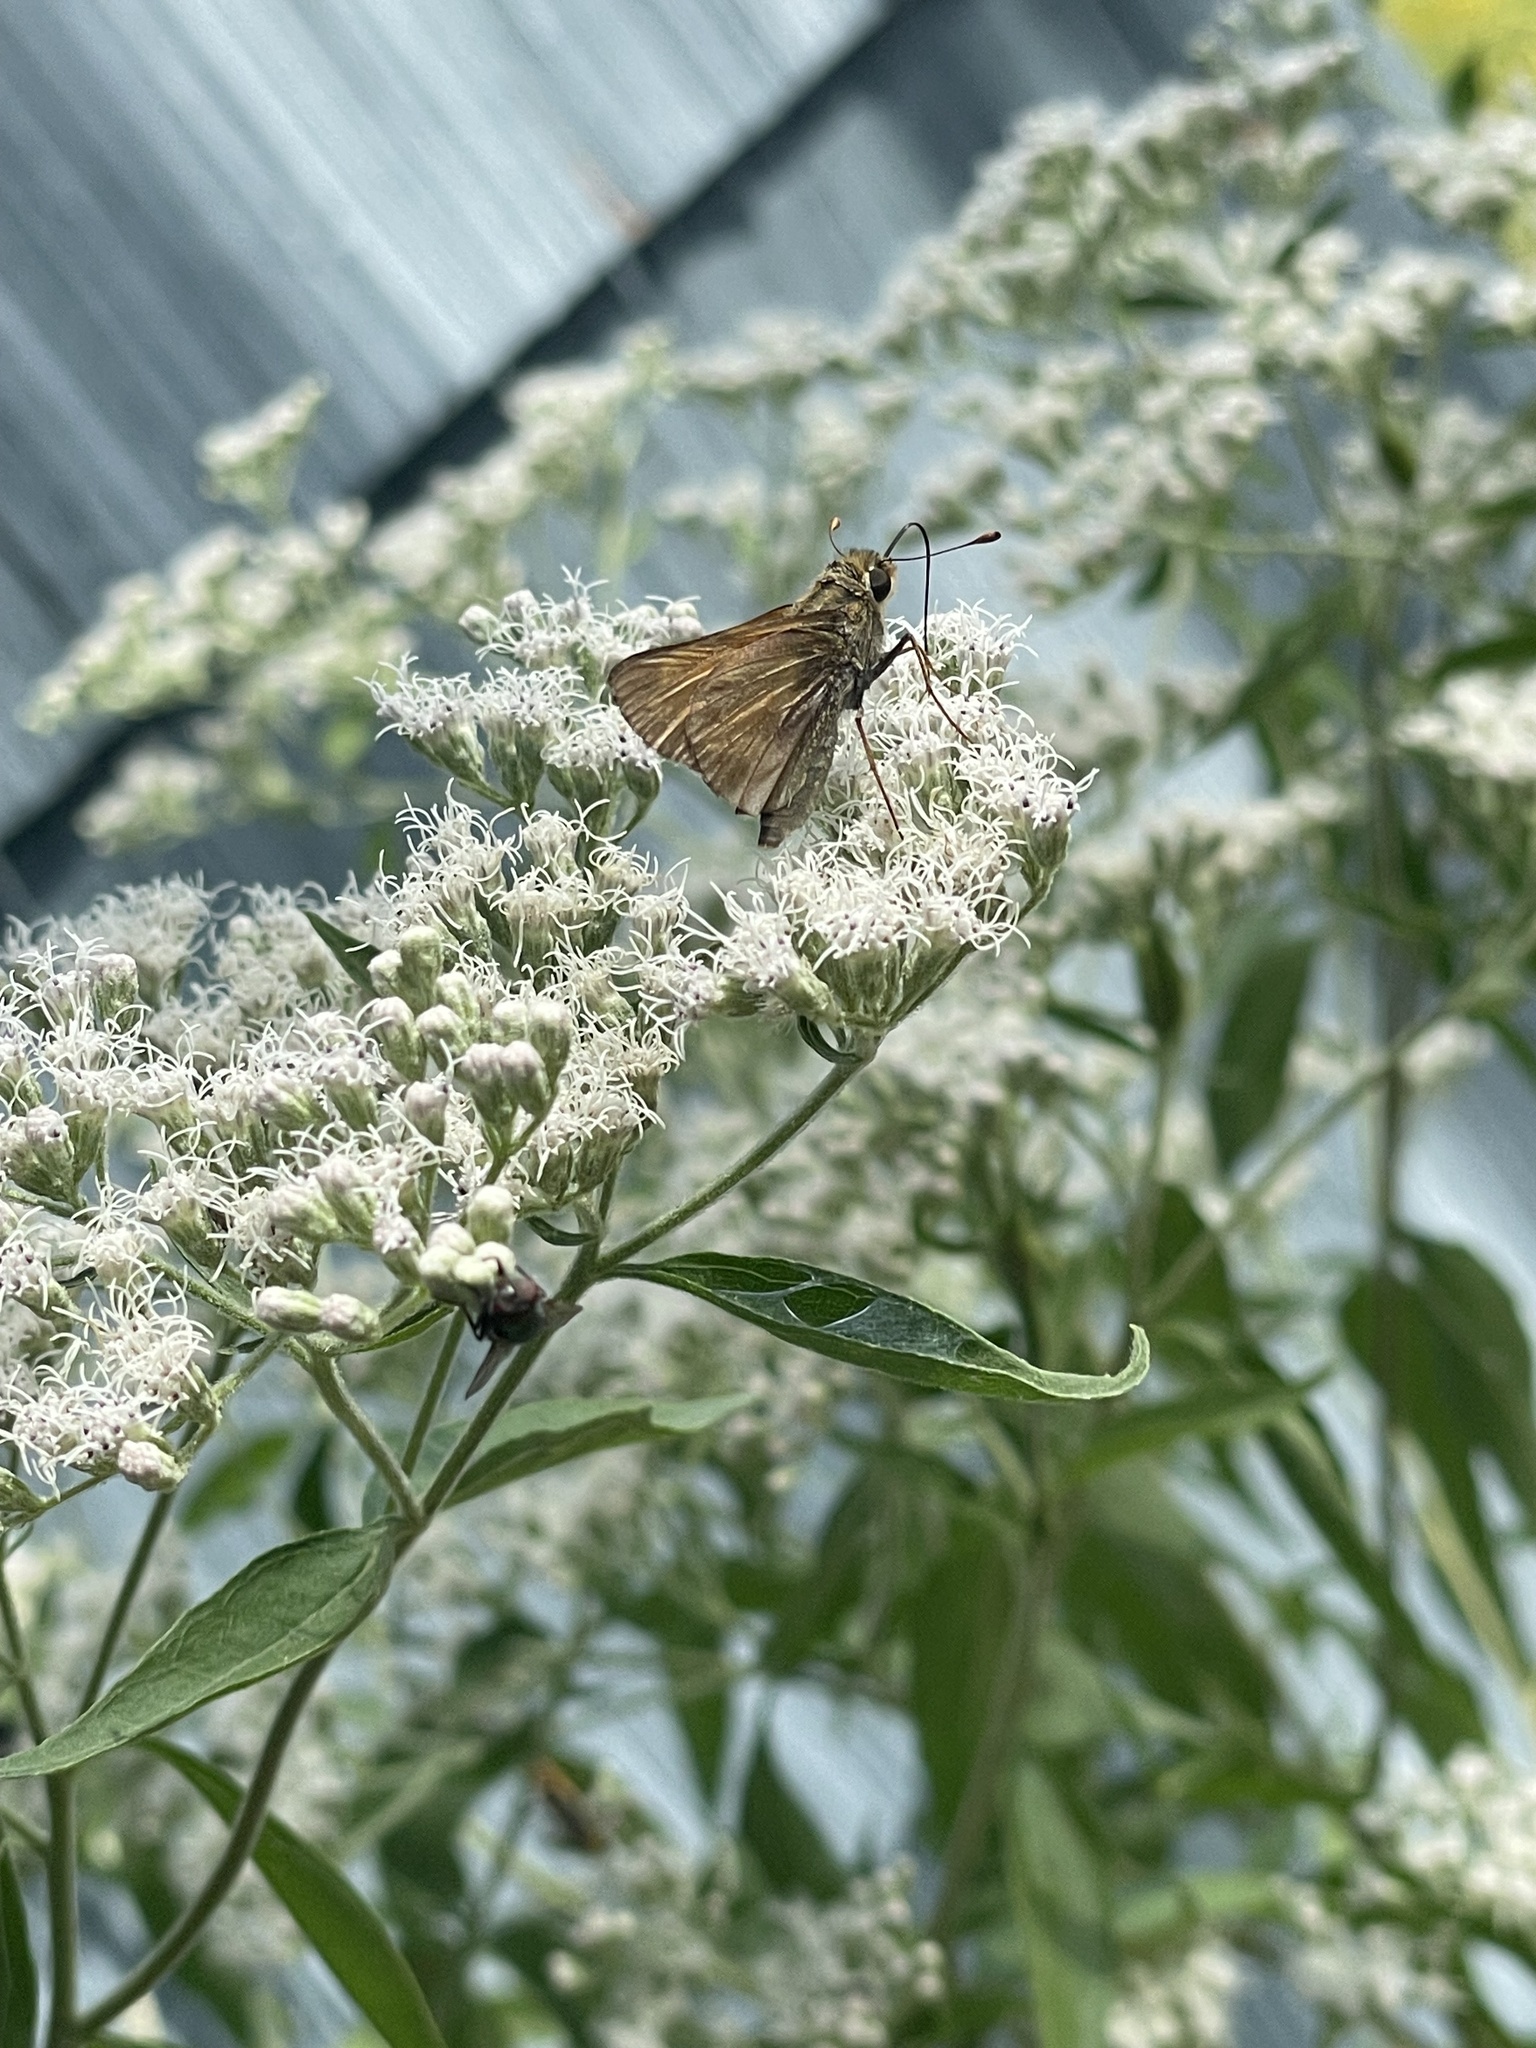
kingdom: Animalia
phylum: Arthropoda
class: Insecta
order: Lepidoptera
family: Hesperiidae
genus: Atalopedes
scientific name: Atalopedes
